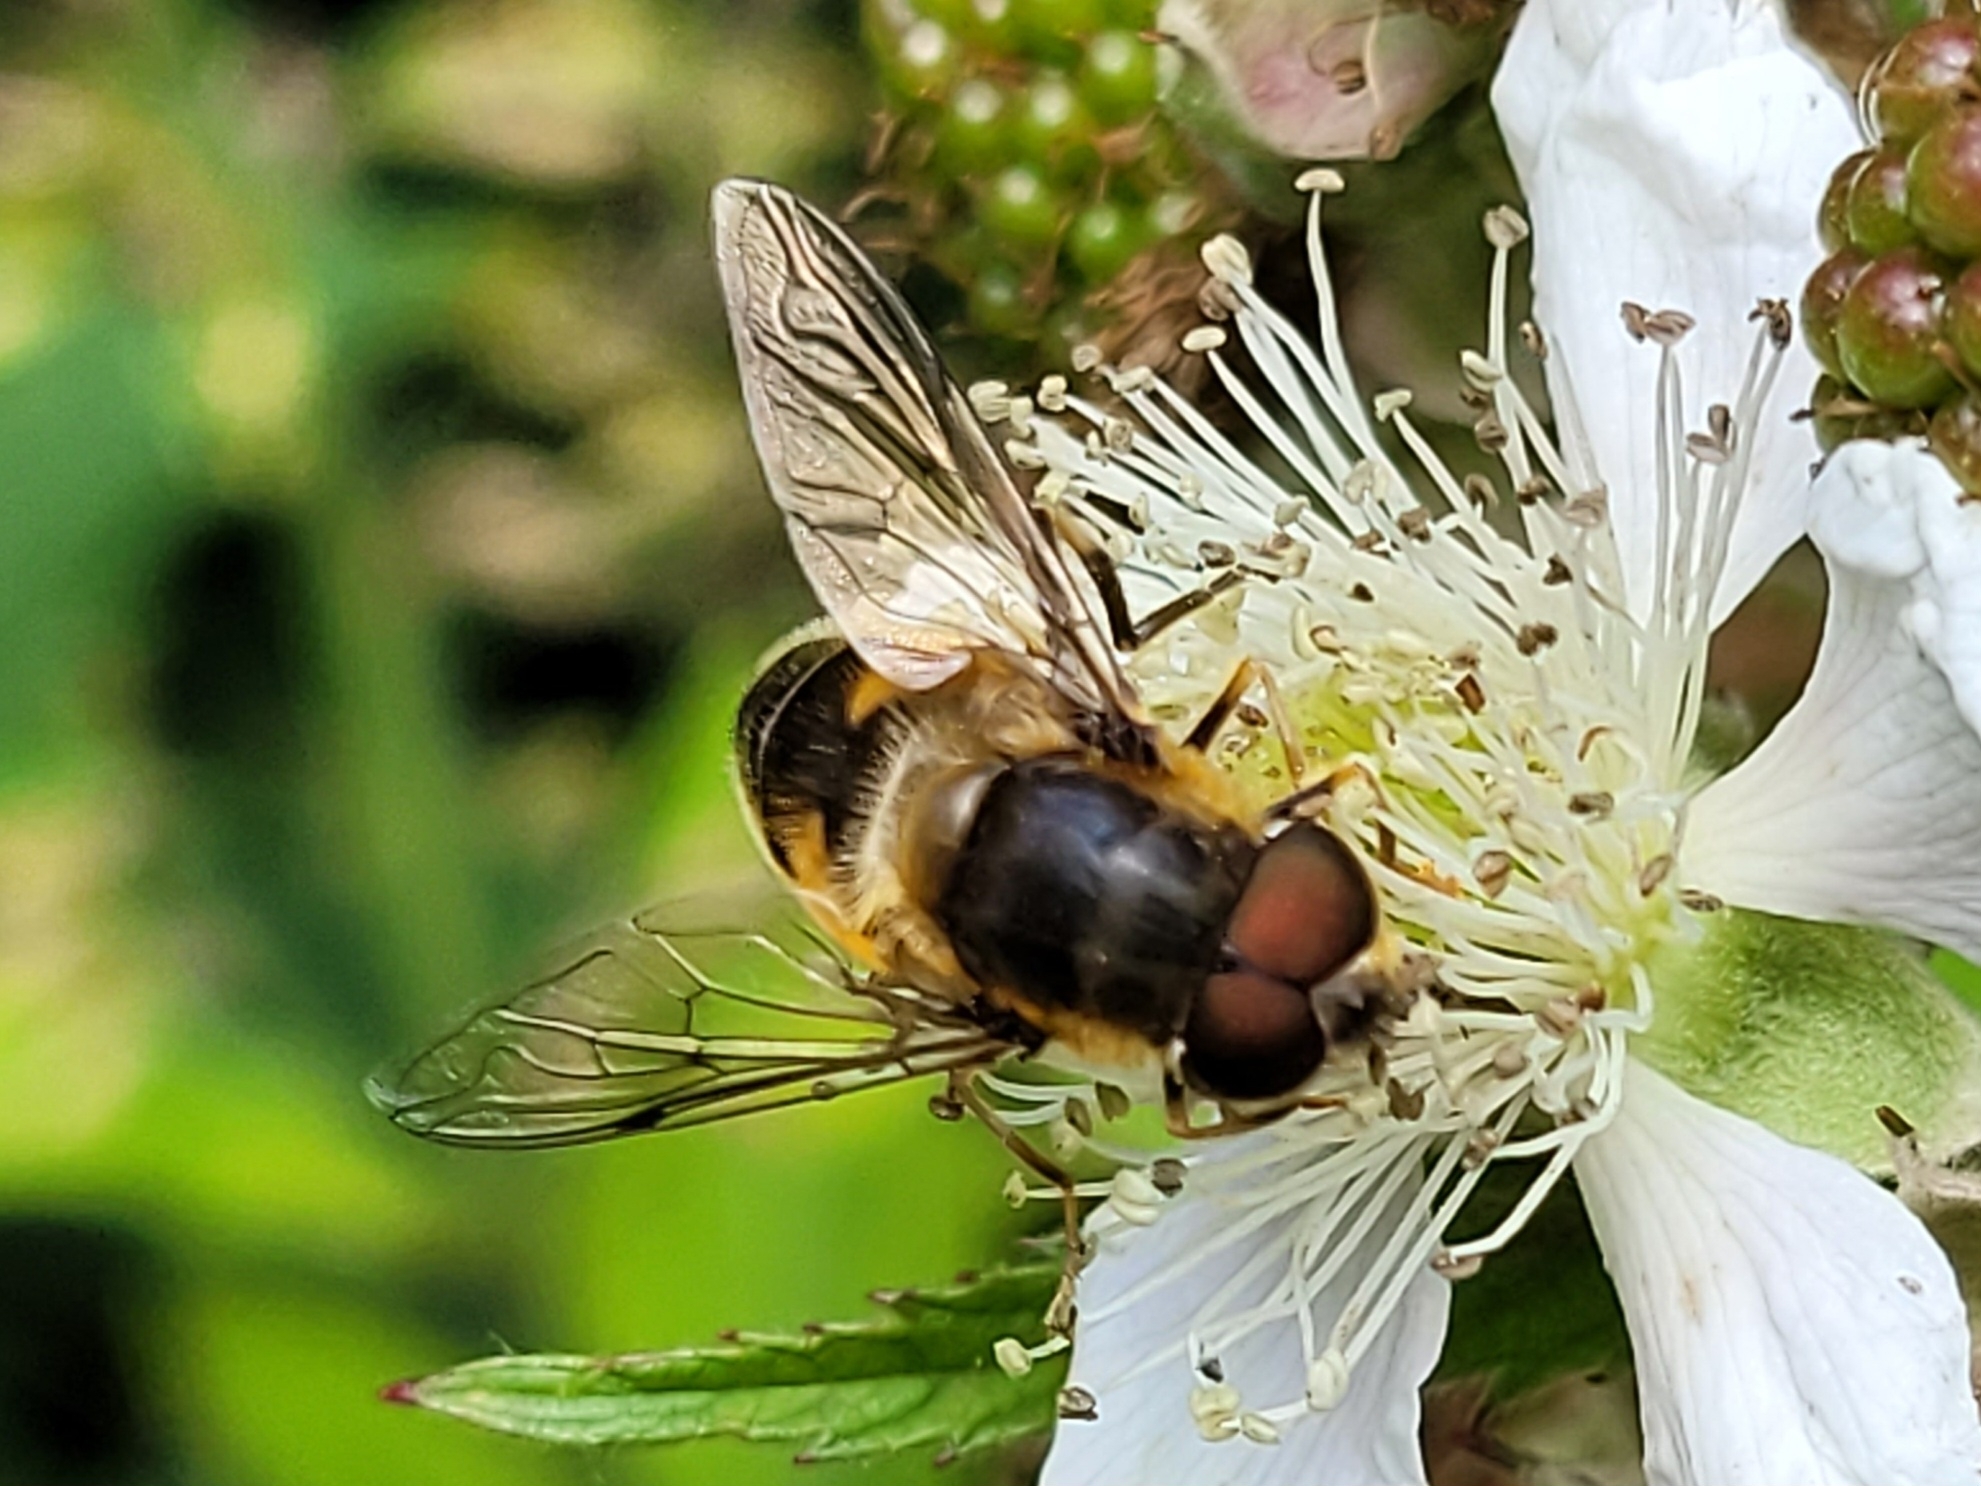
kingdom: Animalia
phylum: Arthropoda
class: Insecta
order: Diptera
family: Syrphidae
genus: Eristalis
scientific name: Eristalis pertinax
